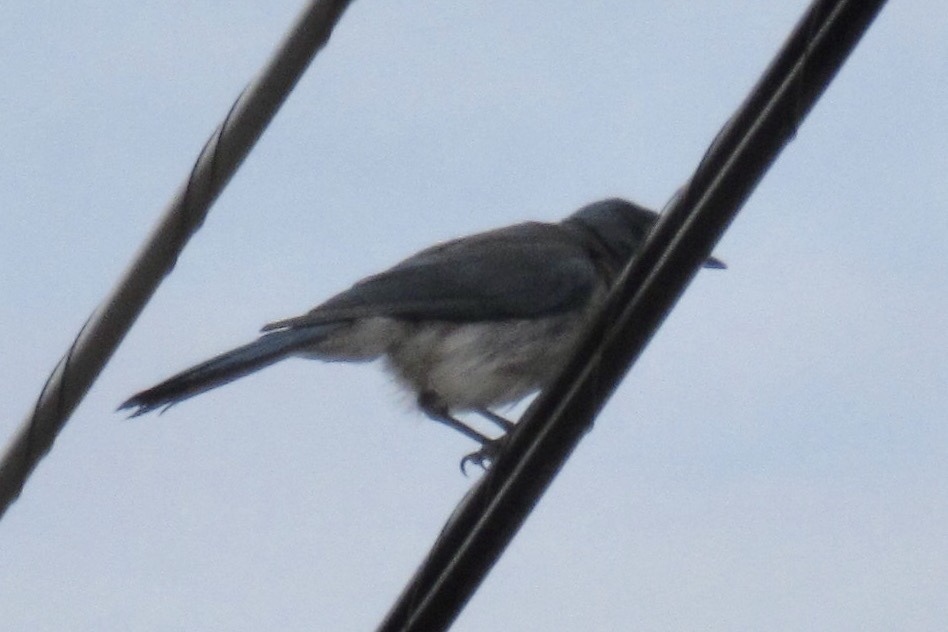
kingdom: Animalia
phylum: Chordata
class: Aves
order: Passeriformes
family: Corvidae
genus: Aphelocoma
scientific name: Aphelocoma wollweberi
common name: Mexican jay
